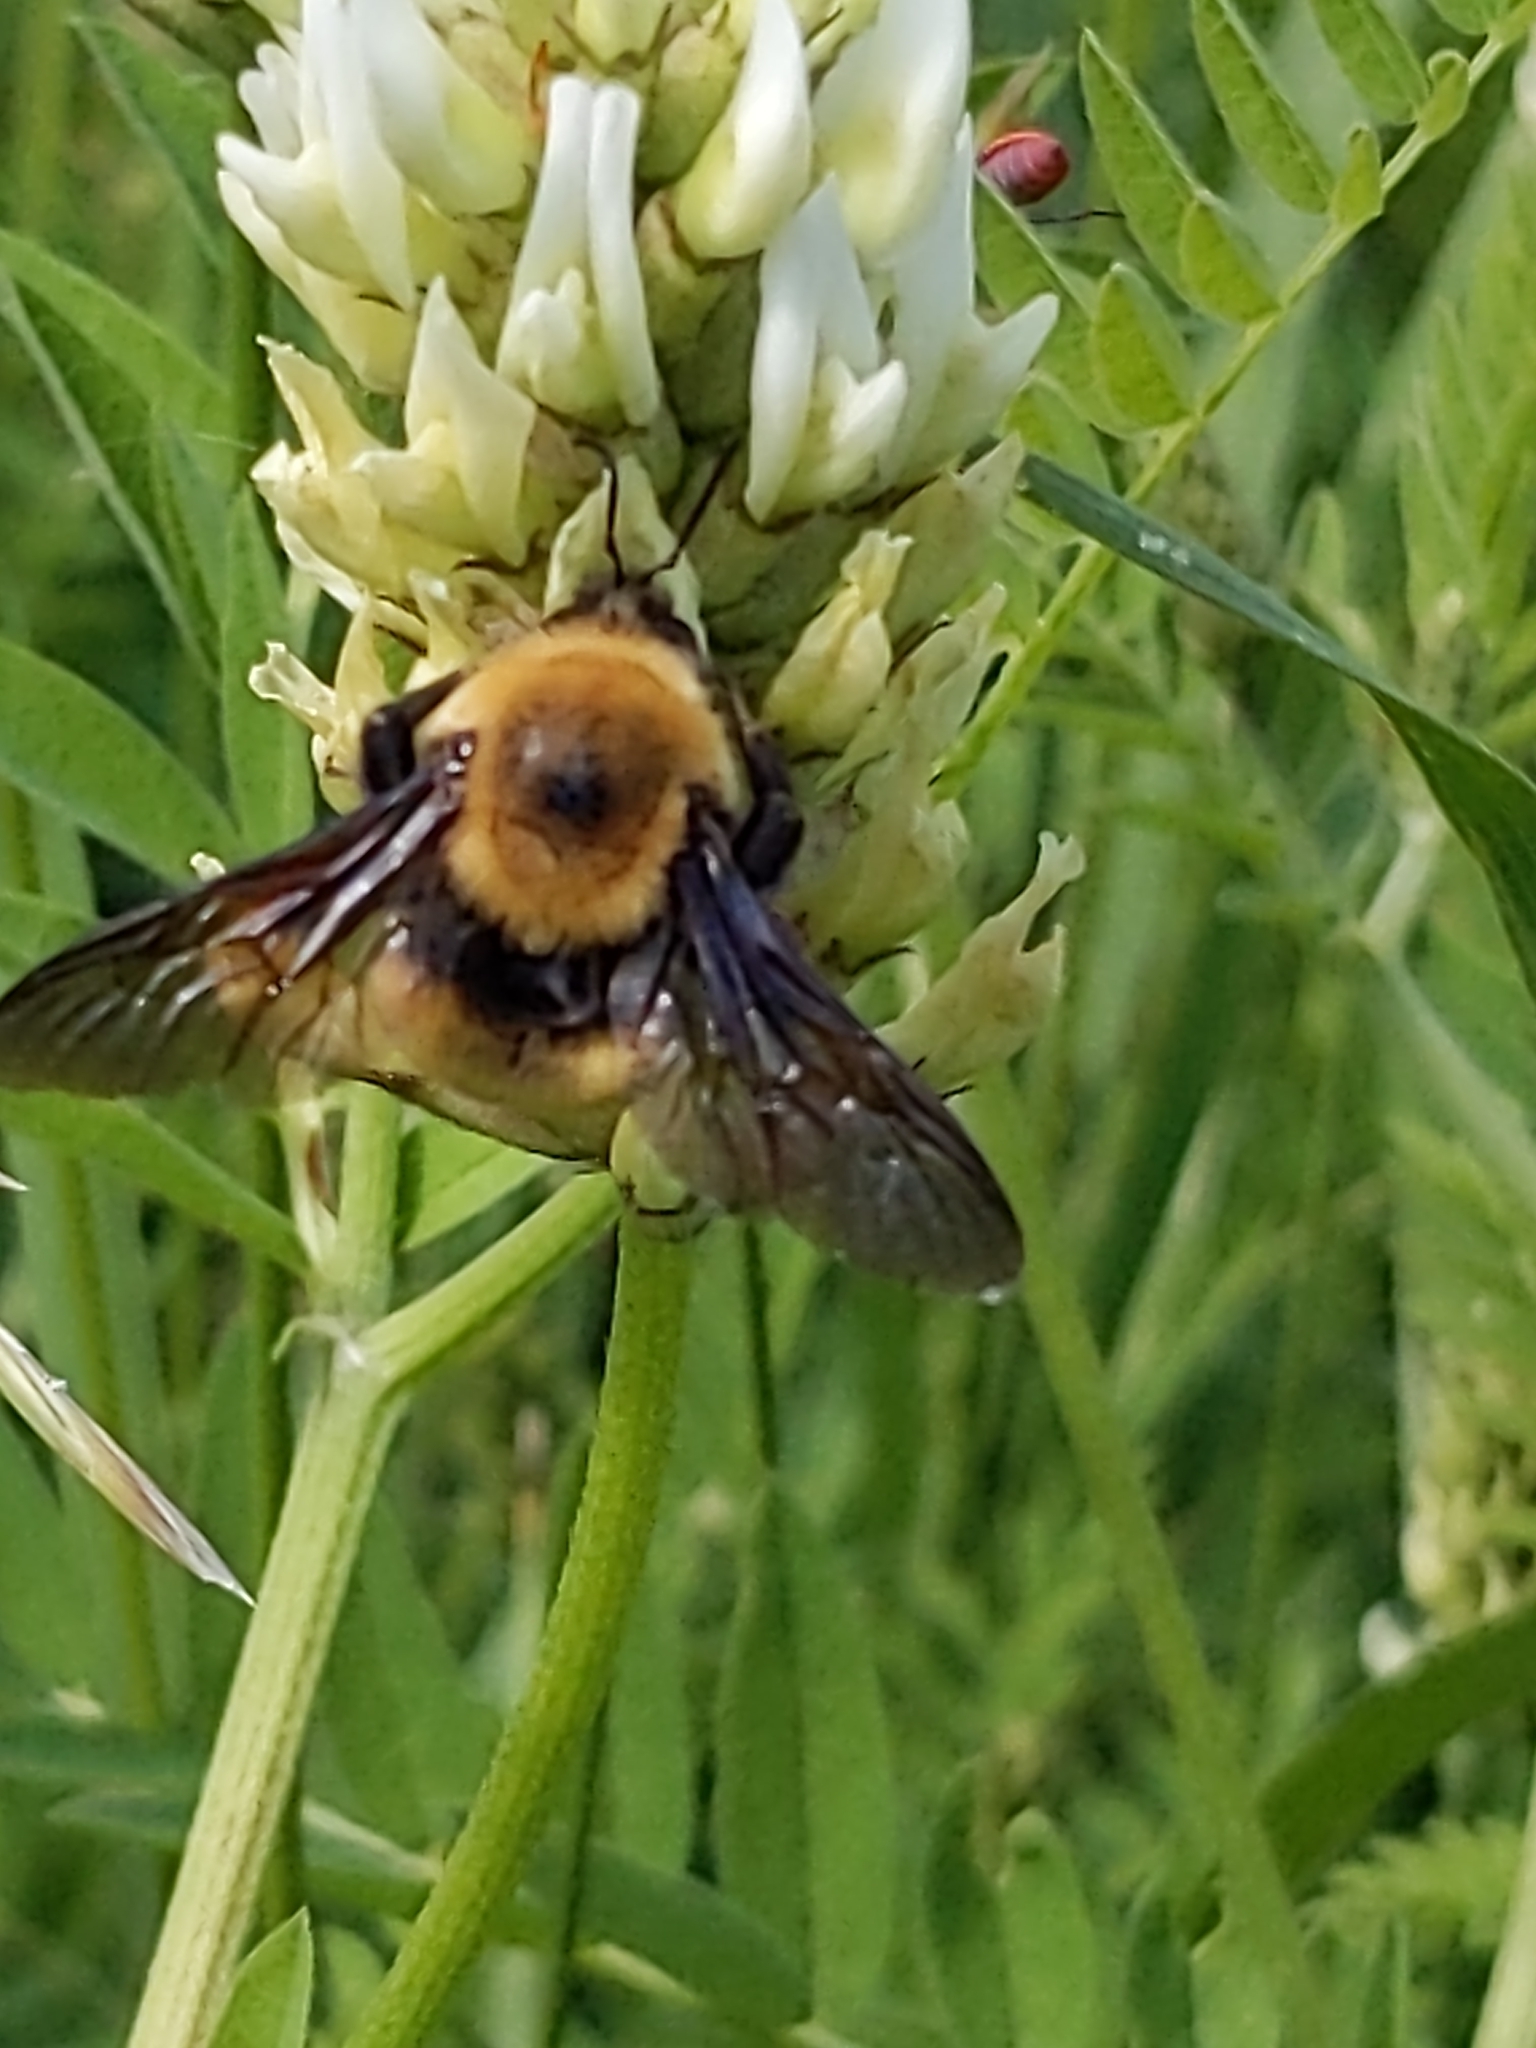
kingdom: Animalia
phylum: Arthropoda
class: Insecta
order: Hymenoptera
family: Apidae
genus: Bombus
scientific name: Bombus nevadensis
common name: Nevada bumble bee
